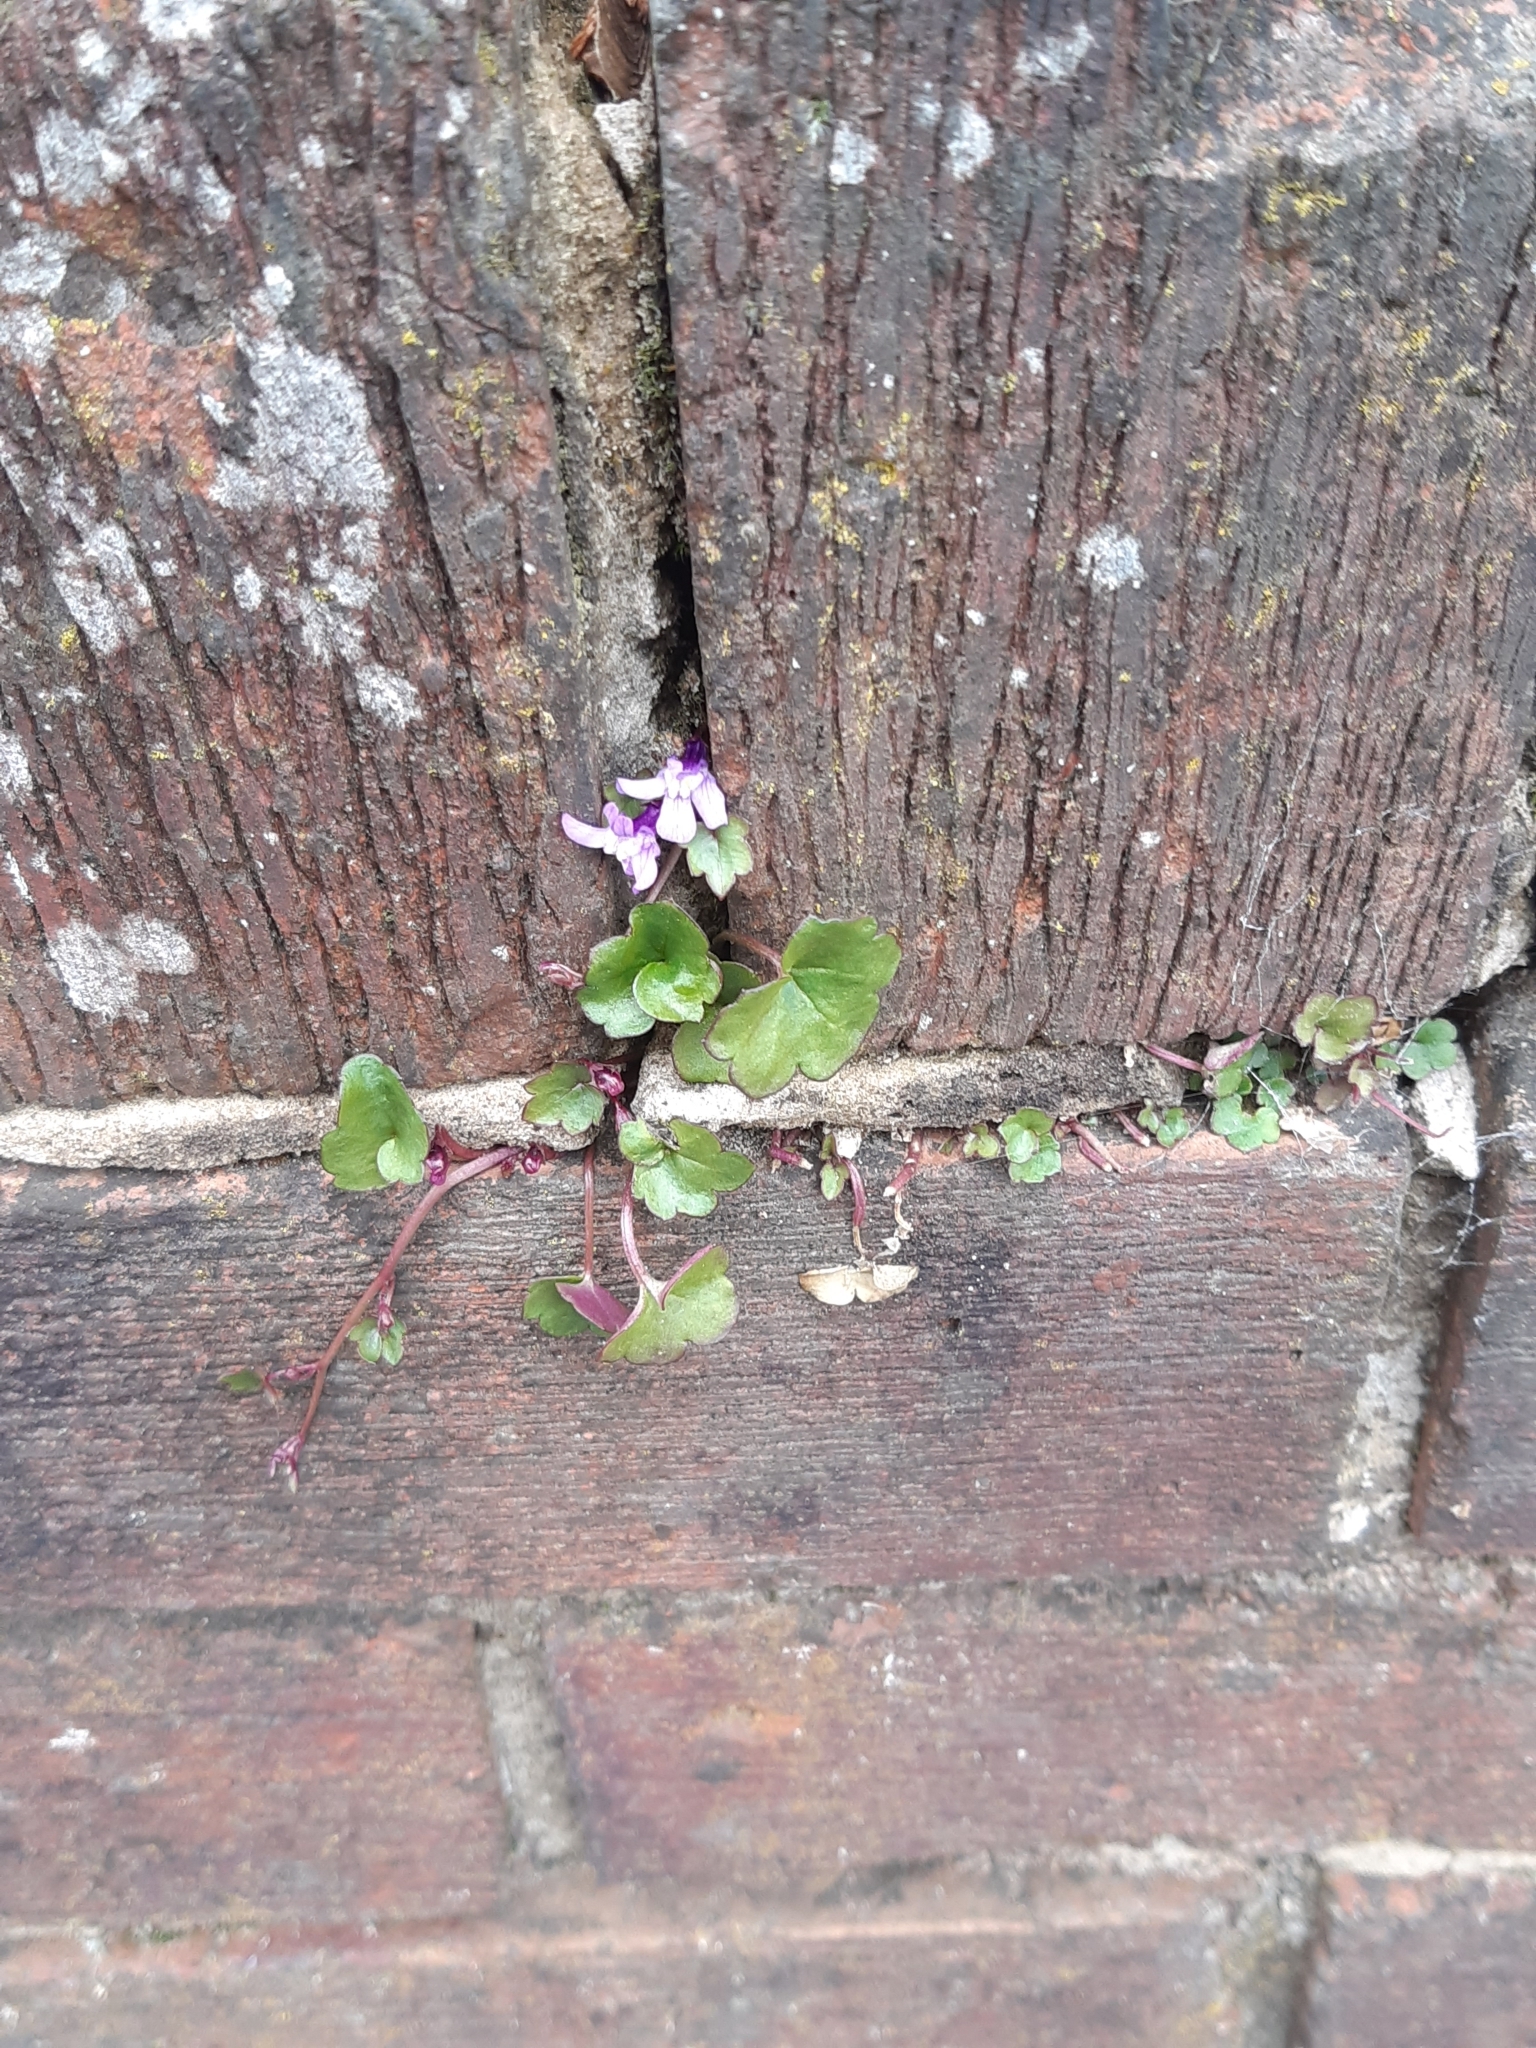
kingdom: Plantae
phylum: Tracheophyta
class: Magnoliopsida
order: Lamiales
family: Plantaginaceae
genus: Cymbalaria
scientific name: Cymbalaria muralis
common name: Ivy-leaved toadflax
